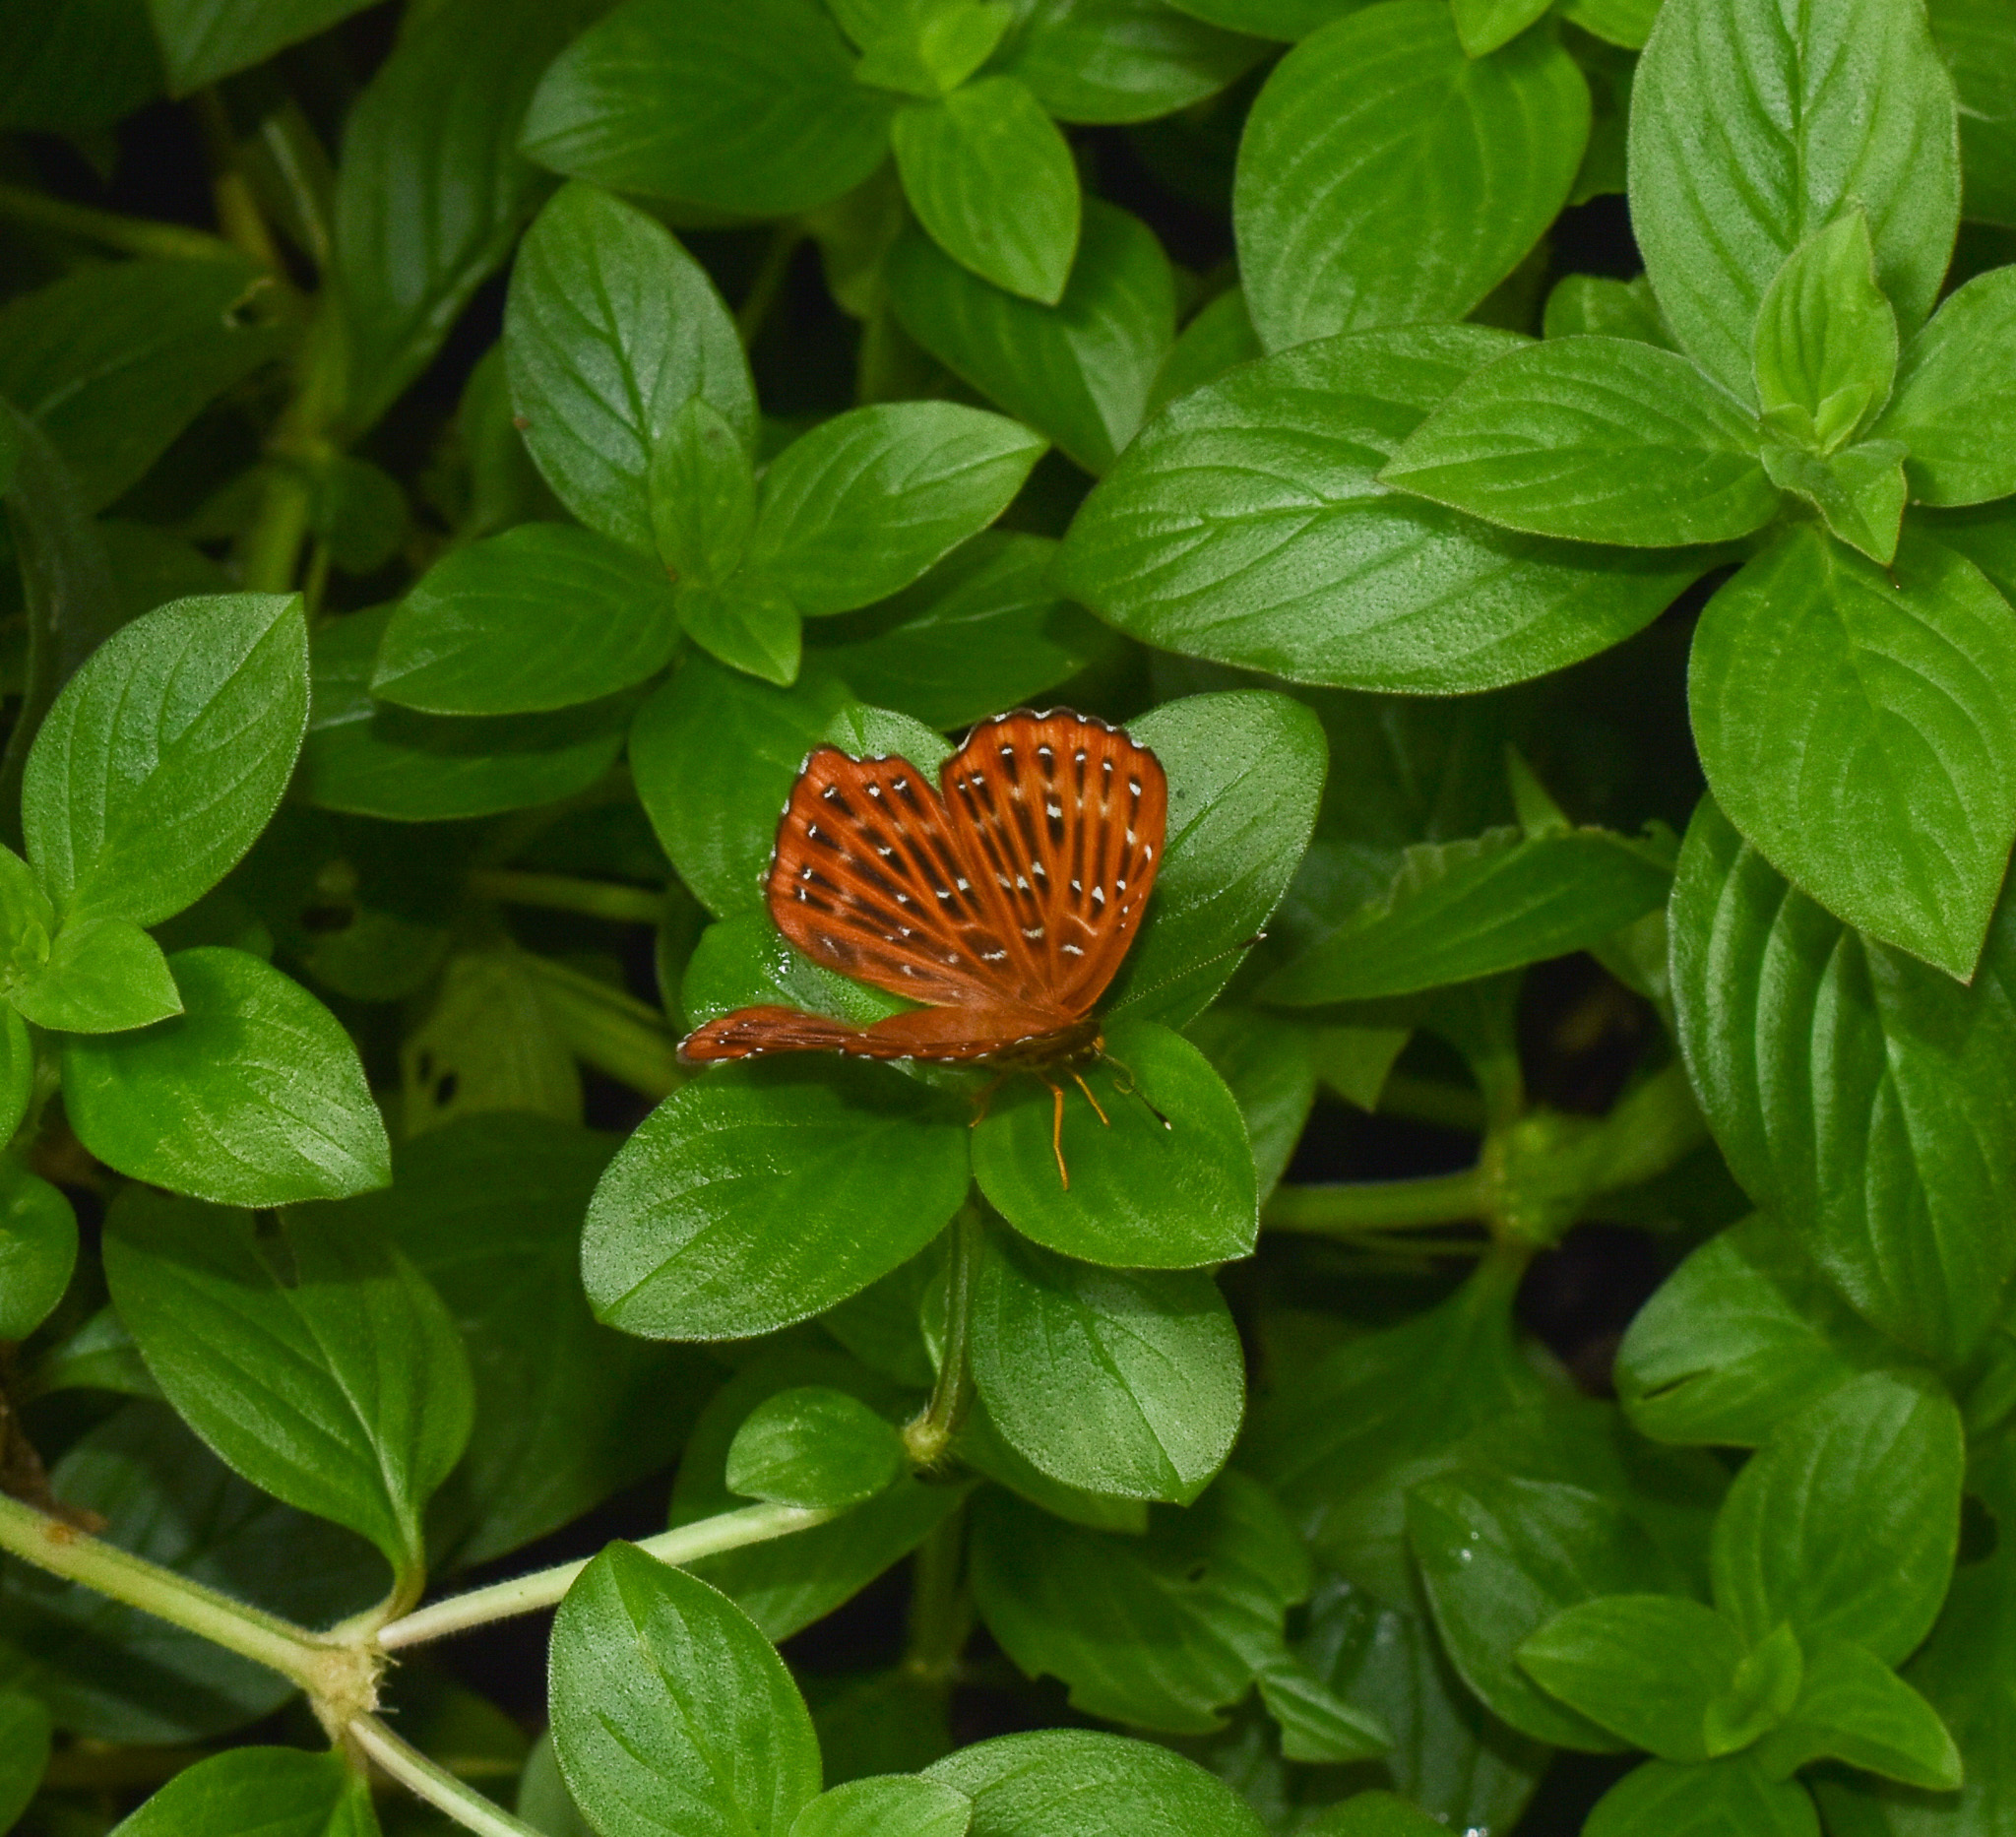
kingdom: Animalia
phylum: Arthropoda
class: Insecta
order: Lepidoptera
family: Riodinidae
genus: Zemeros
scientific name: Zemeros flegyas
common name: Punchinello
